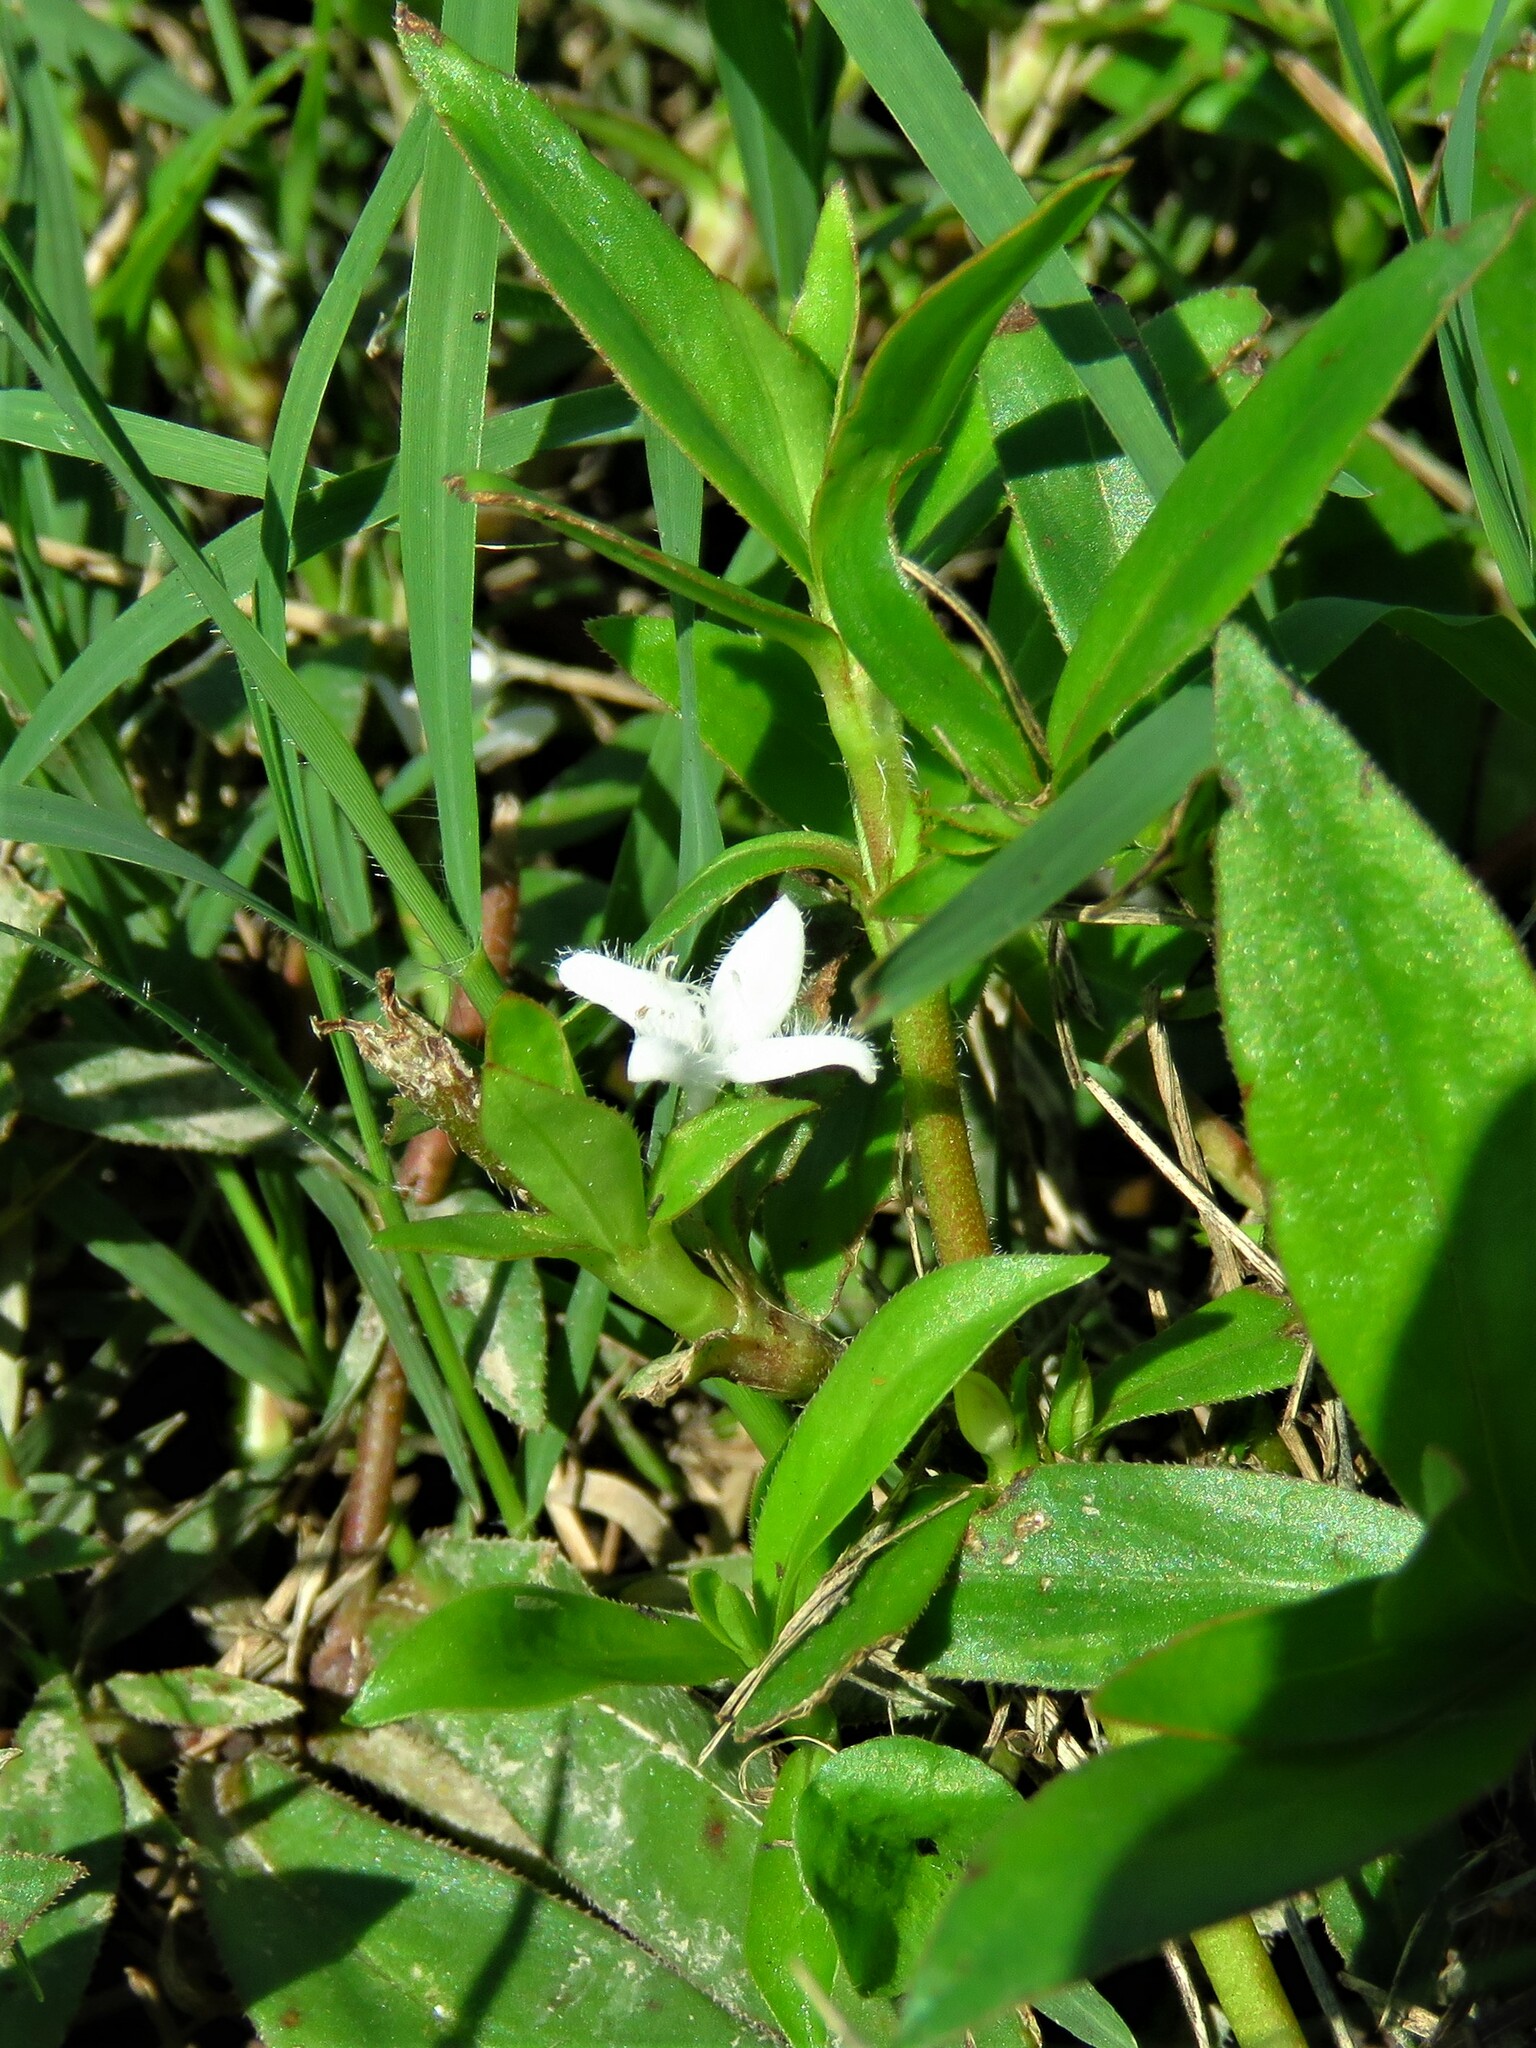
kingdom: Plantae
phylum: Tracheophyta
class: Magnoliopsida
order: Gentianales
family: Rubiaceae
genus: Diodia
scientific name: Diodia virginiana
